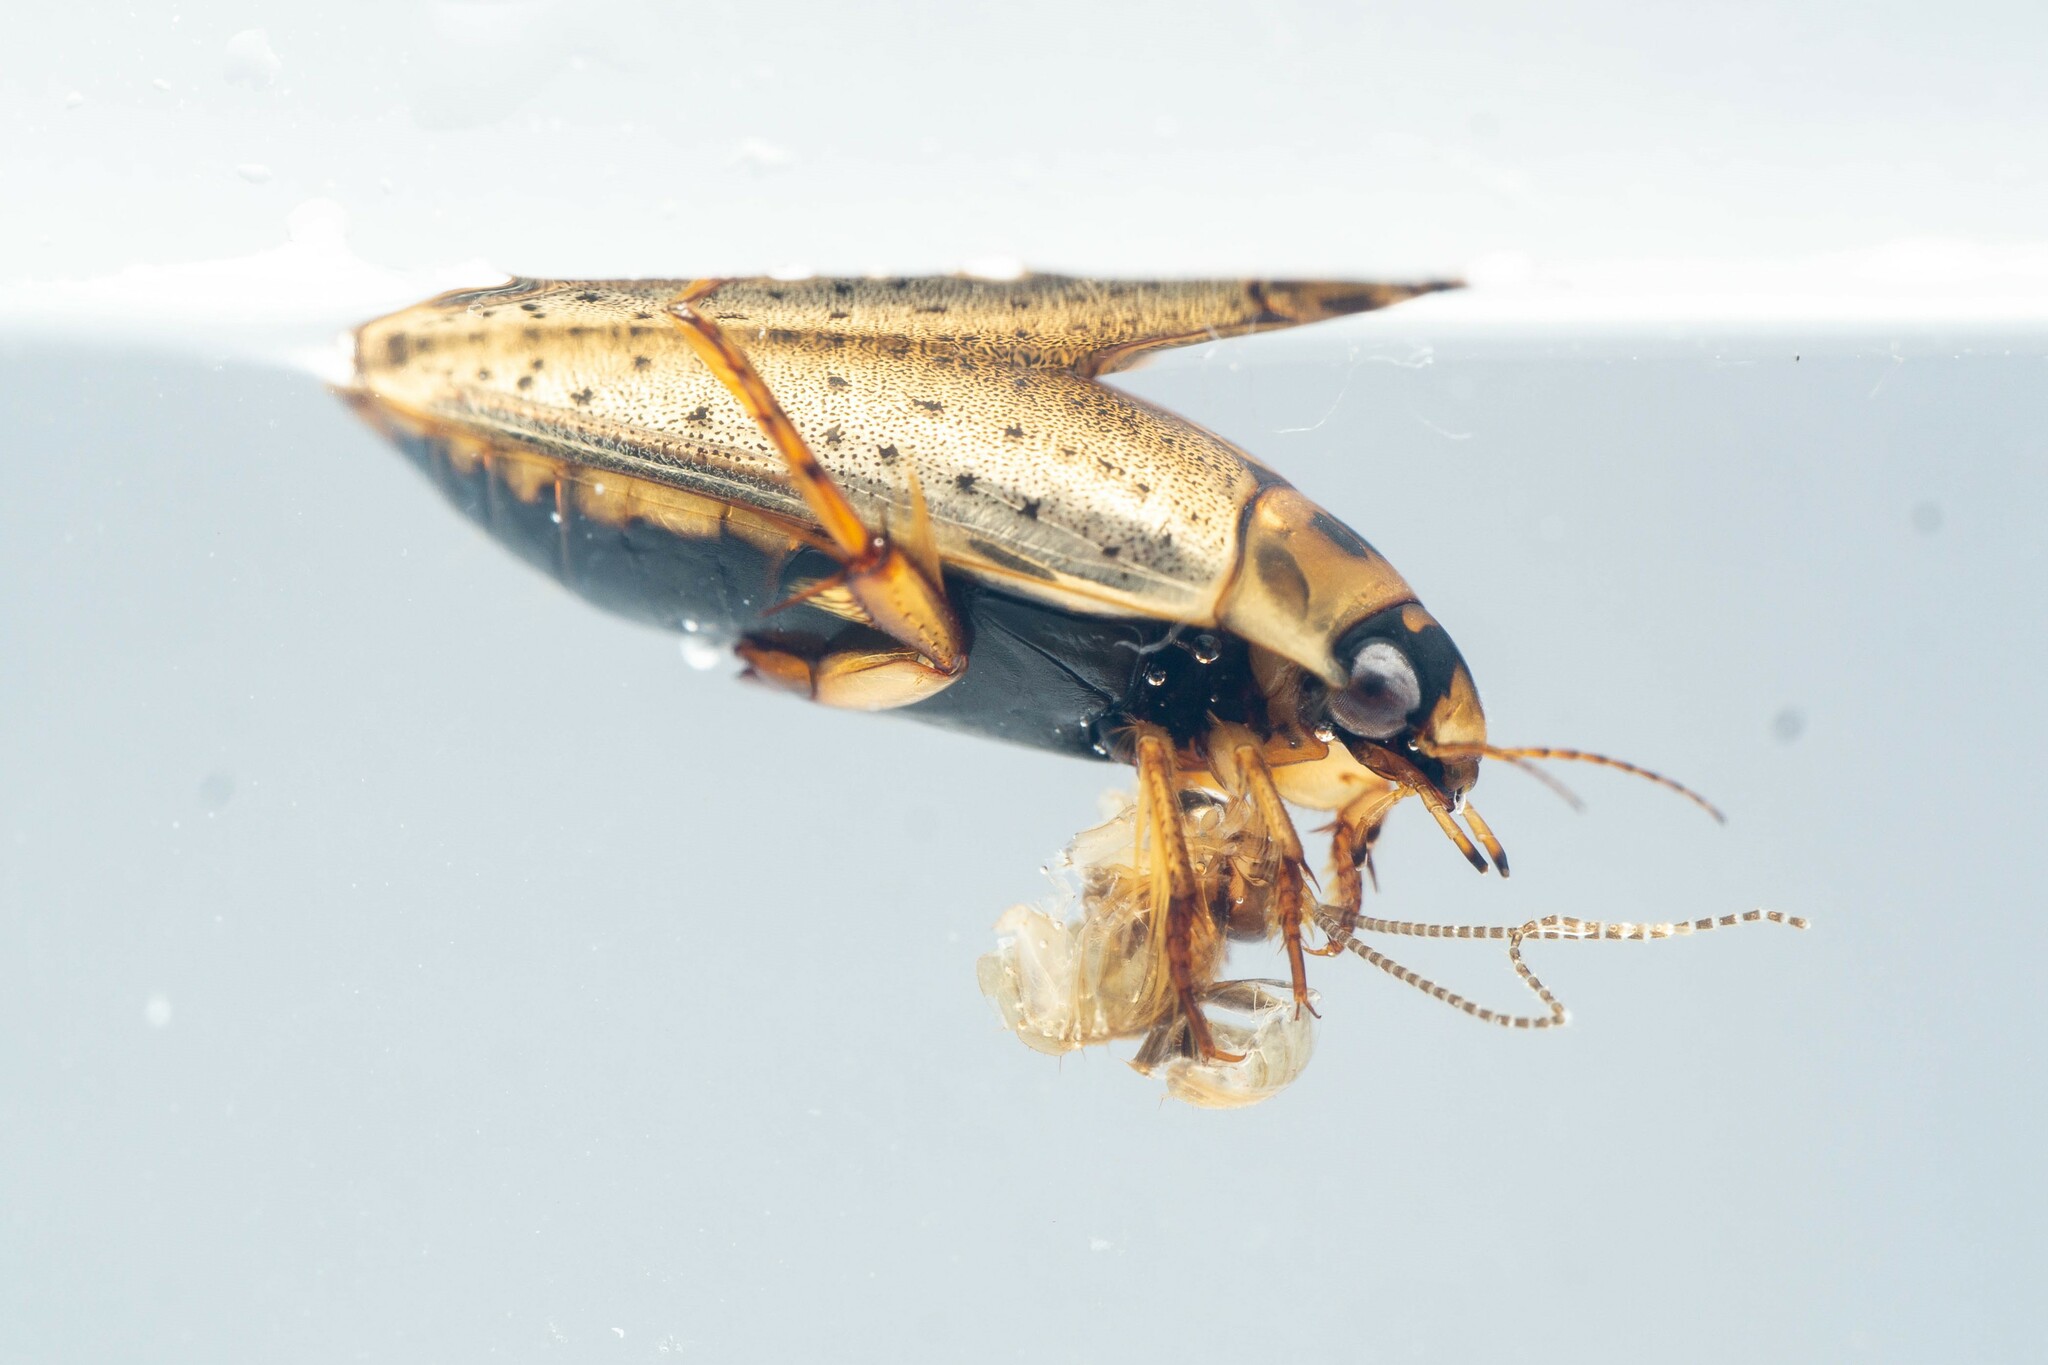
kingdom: Animalia
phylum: Arthropoda
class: Insecta
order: Coleoptera
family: Dytiscidae
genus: Rhantus
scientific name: Rhantus gutticollis
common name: Predaceous diving beetle
